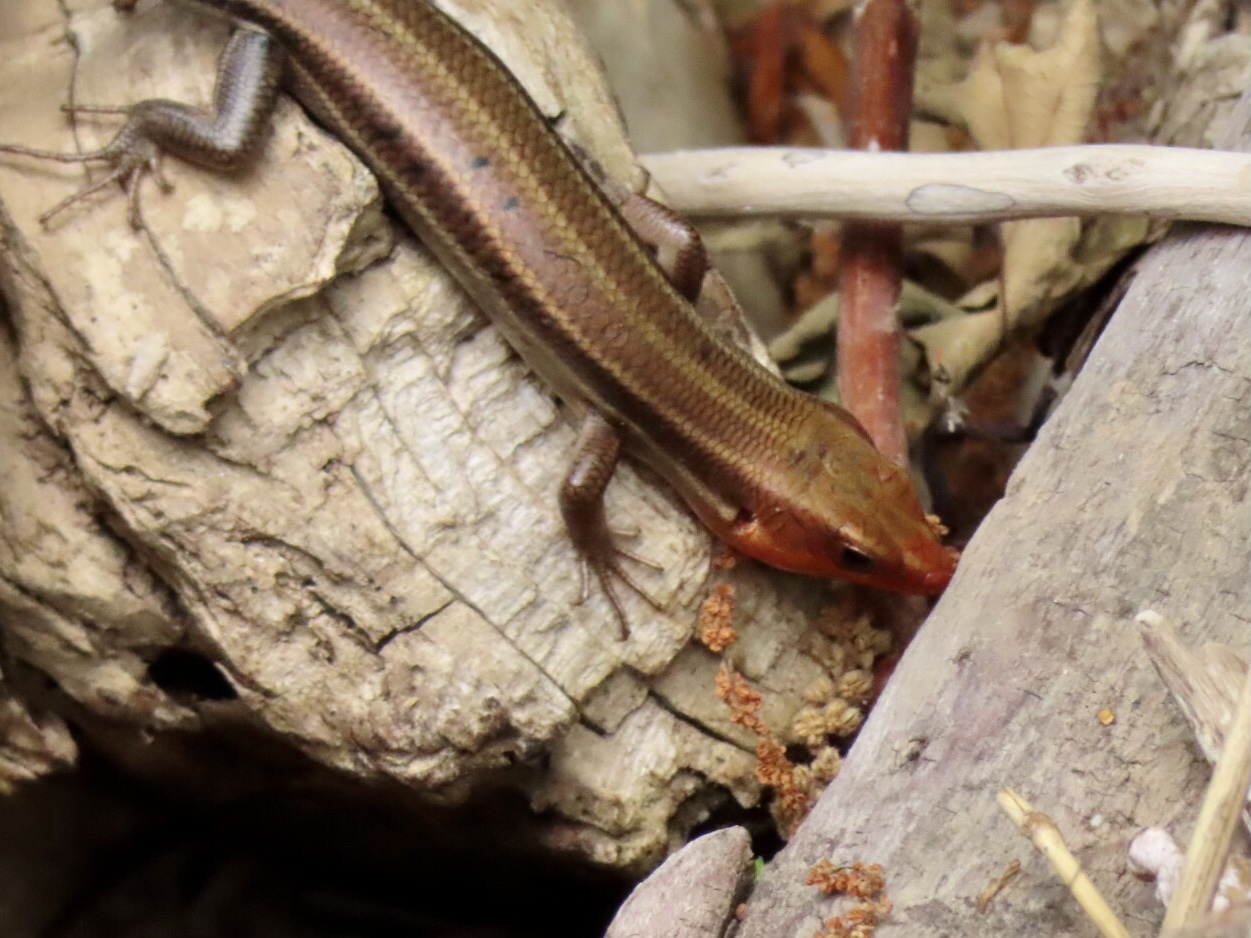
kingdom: Animalia
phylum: Chordata
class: Squamata
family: Scincidae
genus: Plestiodon
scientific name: Plestiodon fasciatus
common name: Five-lined skink
